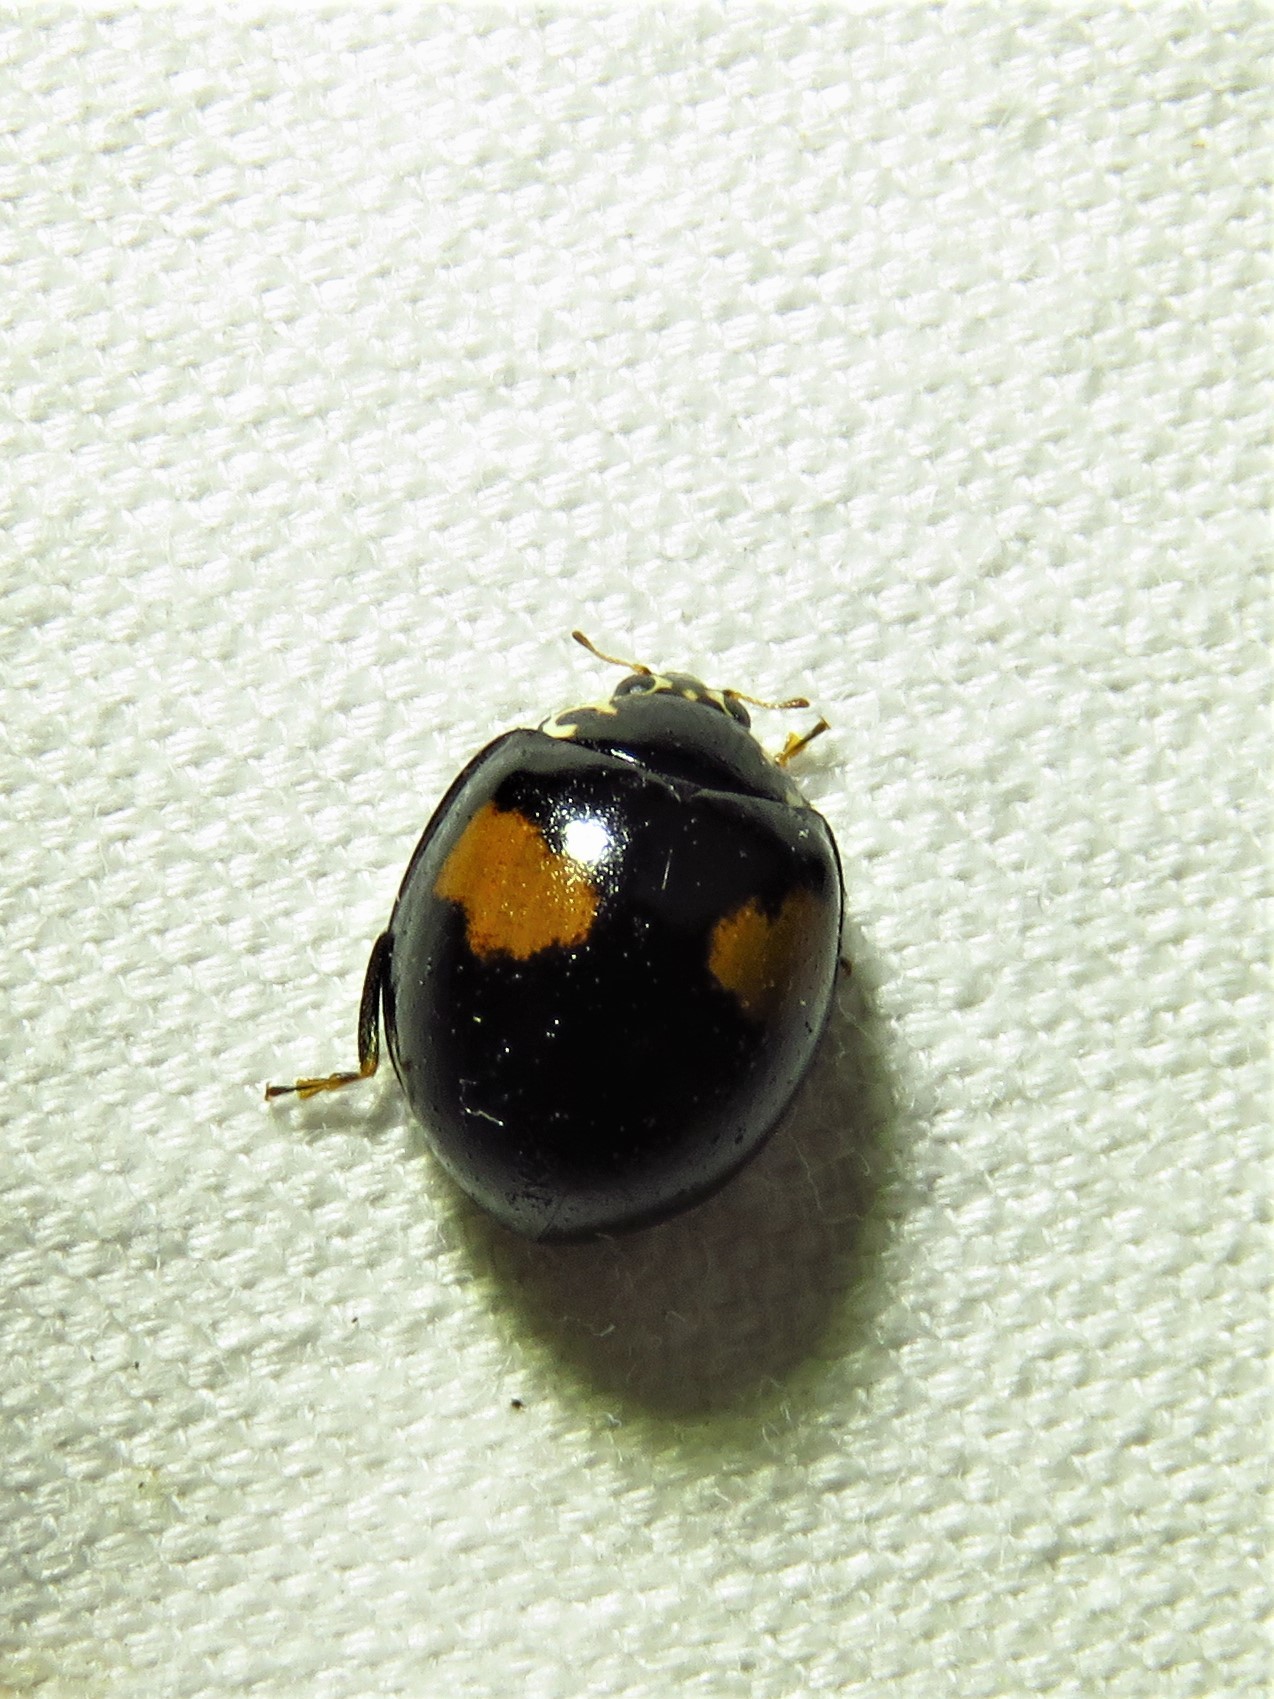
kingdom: Animalia
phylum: Arthropoda
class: Insecta
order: Coleoptera
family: Coccinellidae
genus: Olla
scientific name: Olla v-nigrum
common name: Ashy gray lady beetle
